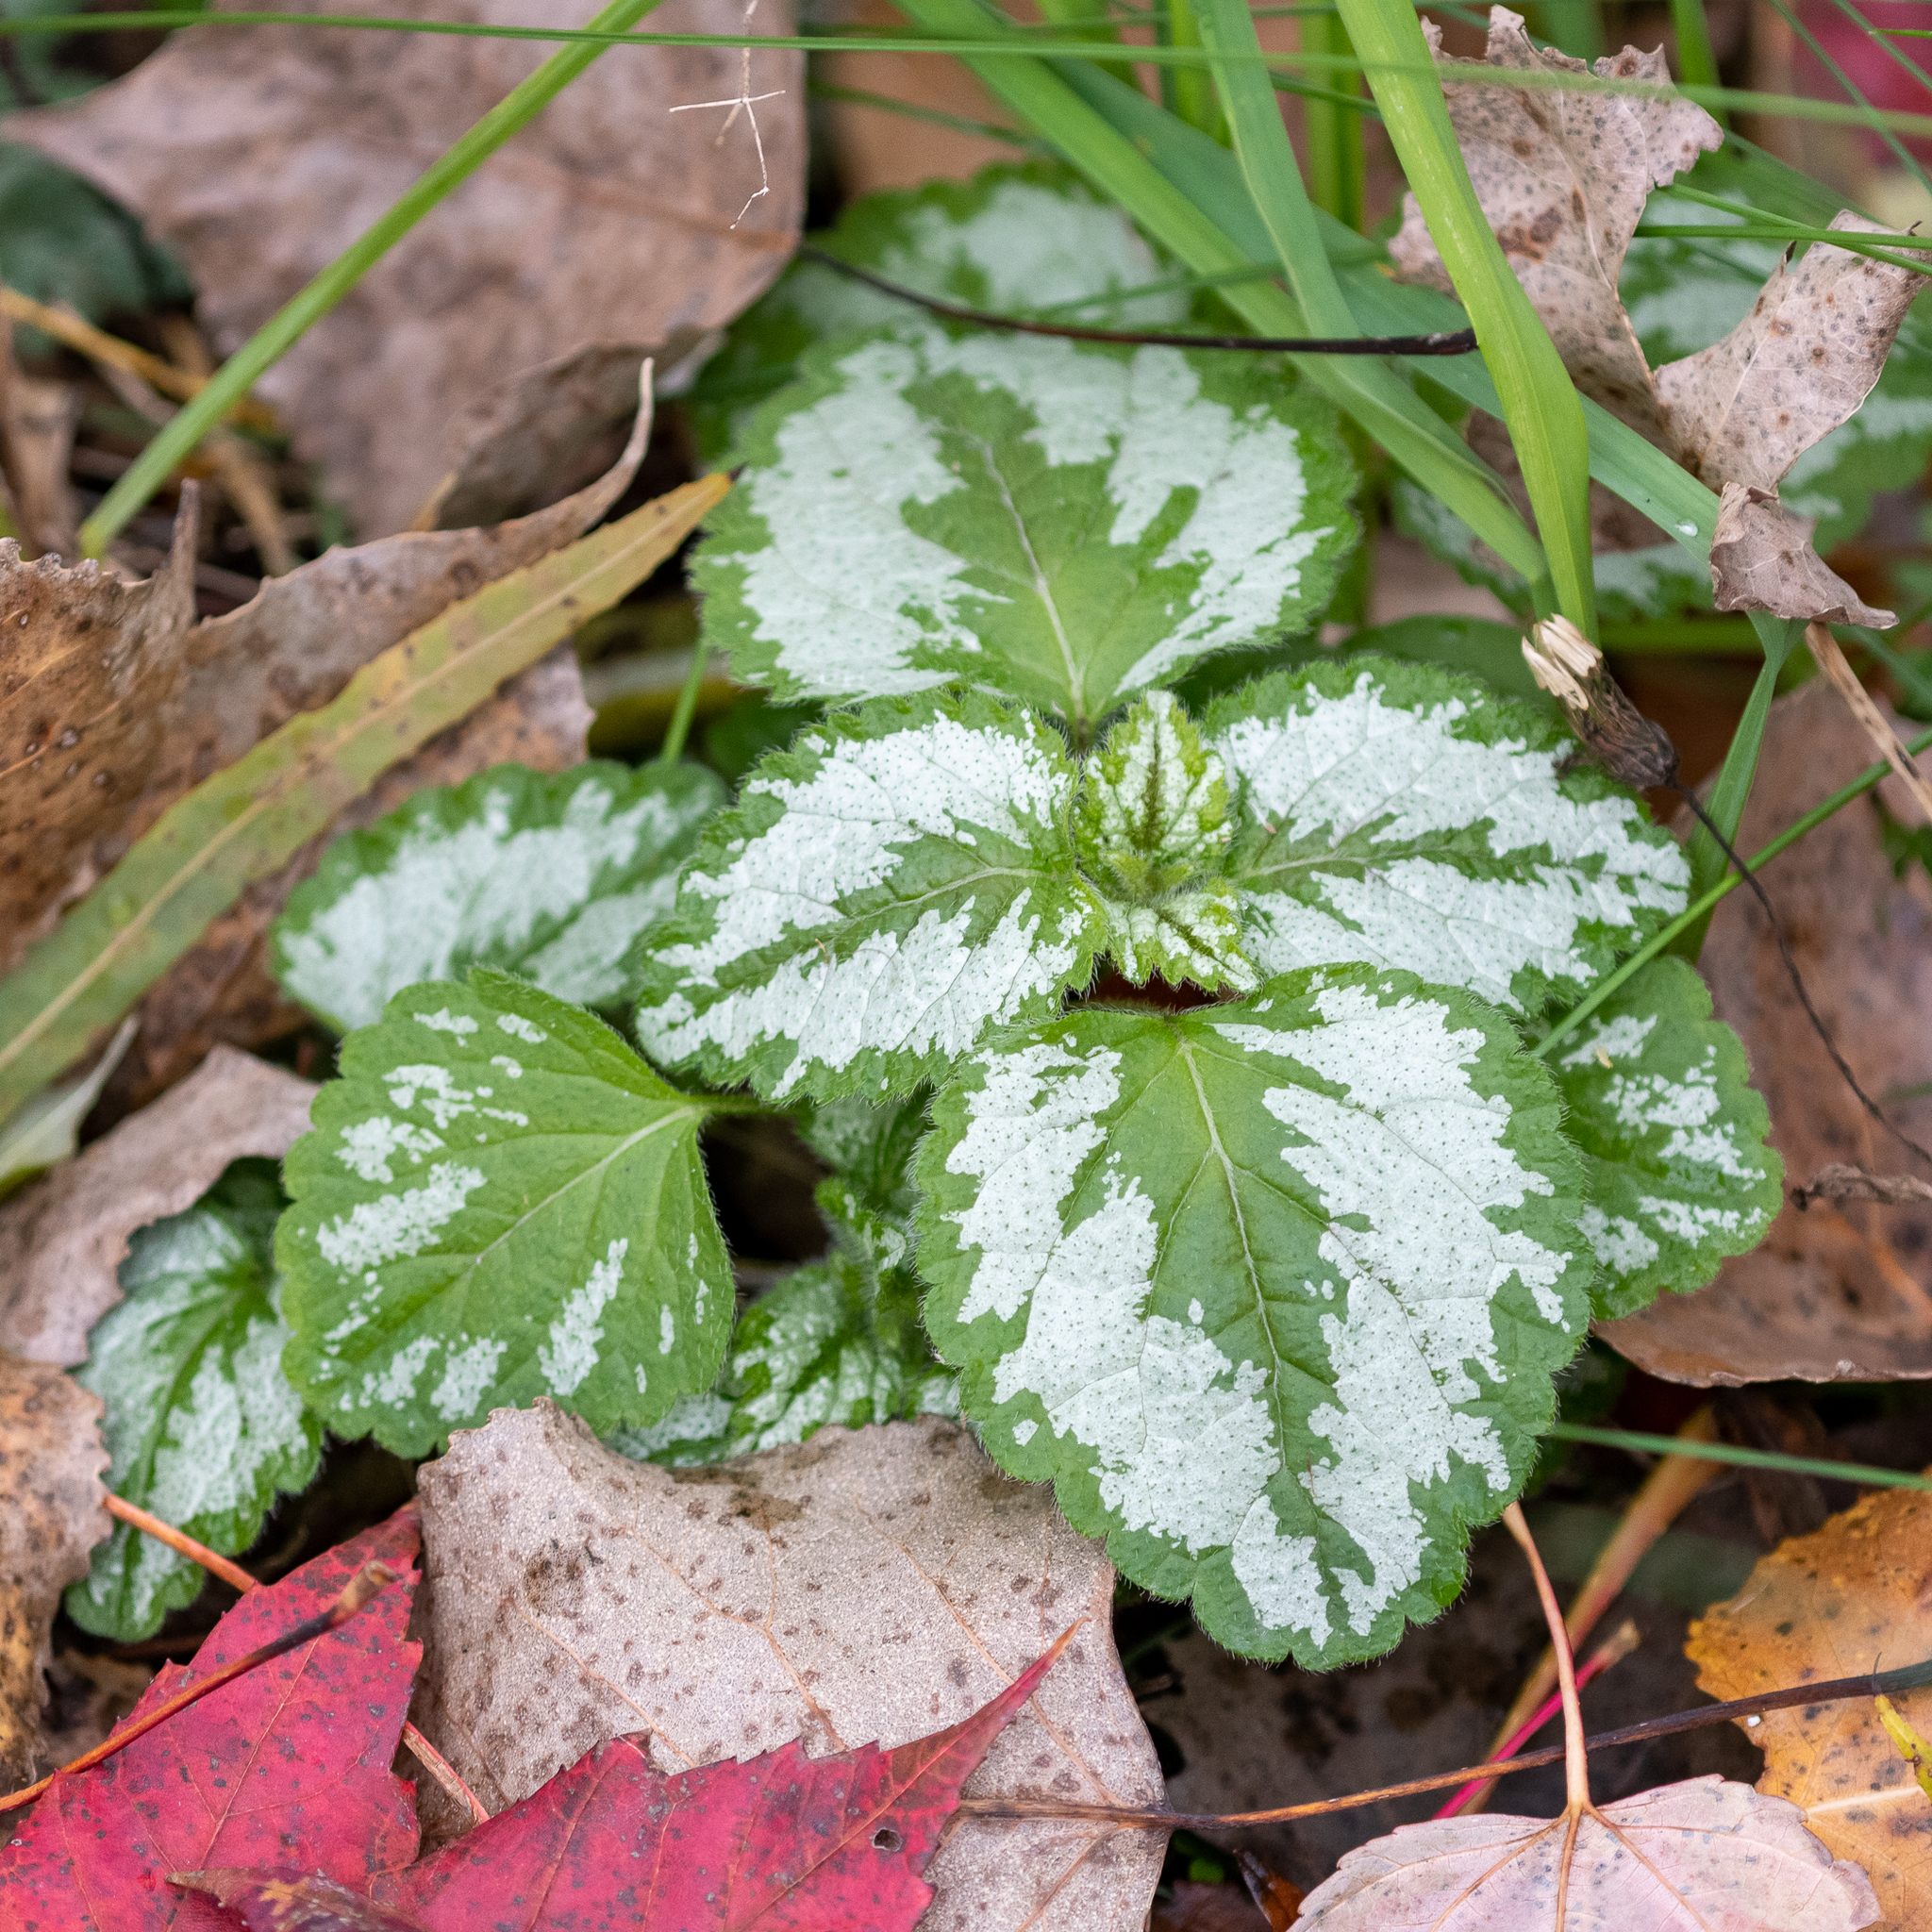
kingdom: Plantae
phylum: Tracheophyta
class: Magnoliopsida
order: Lamiales
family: Lamiaceae
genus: Lamium
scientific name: Lamium galeobdolon
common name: Yellow archangel
